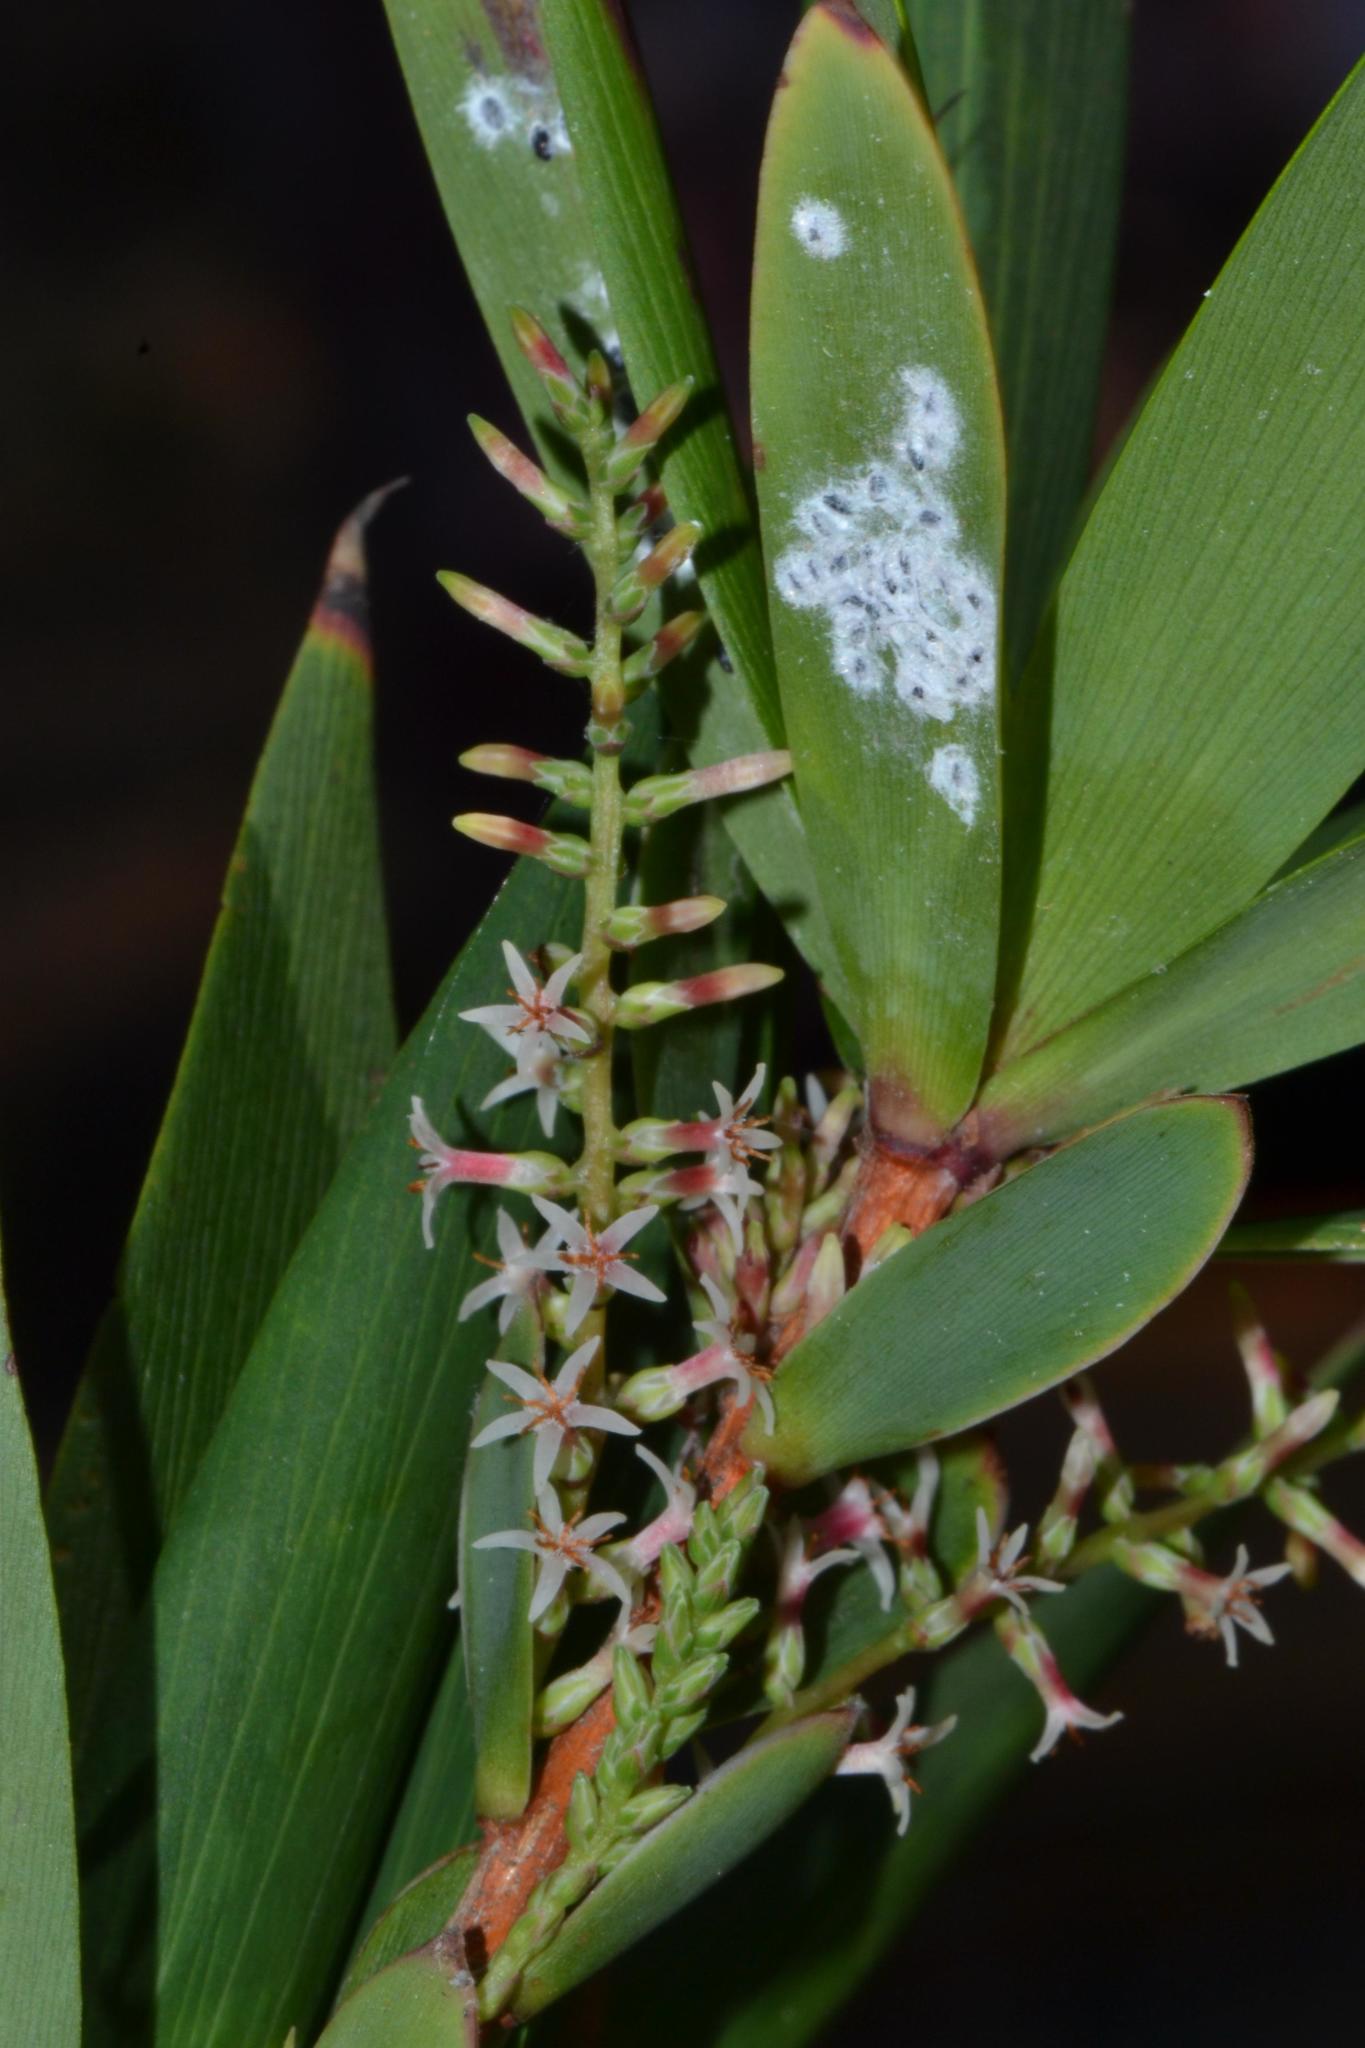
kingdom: Plantae
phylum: Tracheophyta
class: Magnoliopsida
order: Ericales
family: Ericaceae
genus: Leucopogon
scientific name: Leucopogon verticillatus
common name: Tasselshrub
